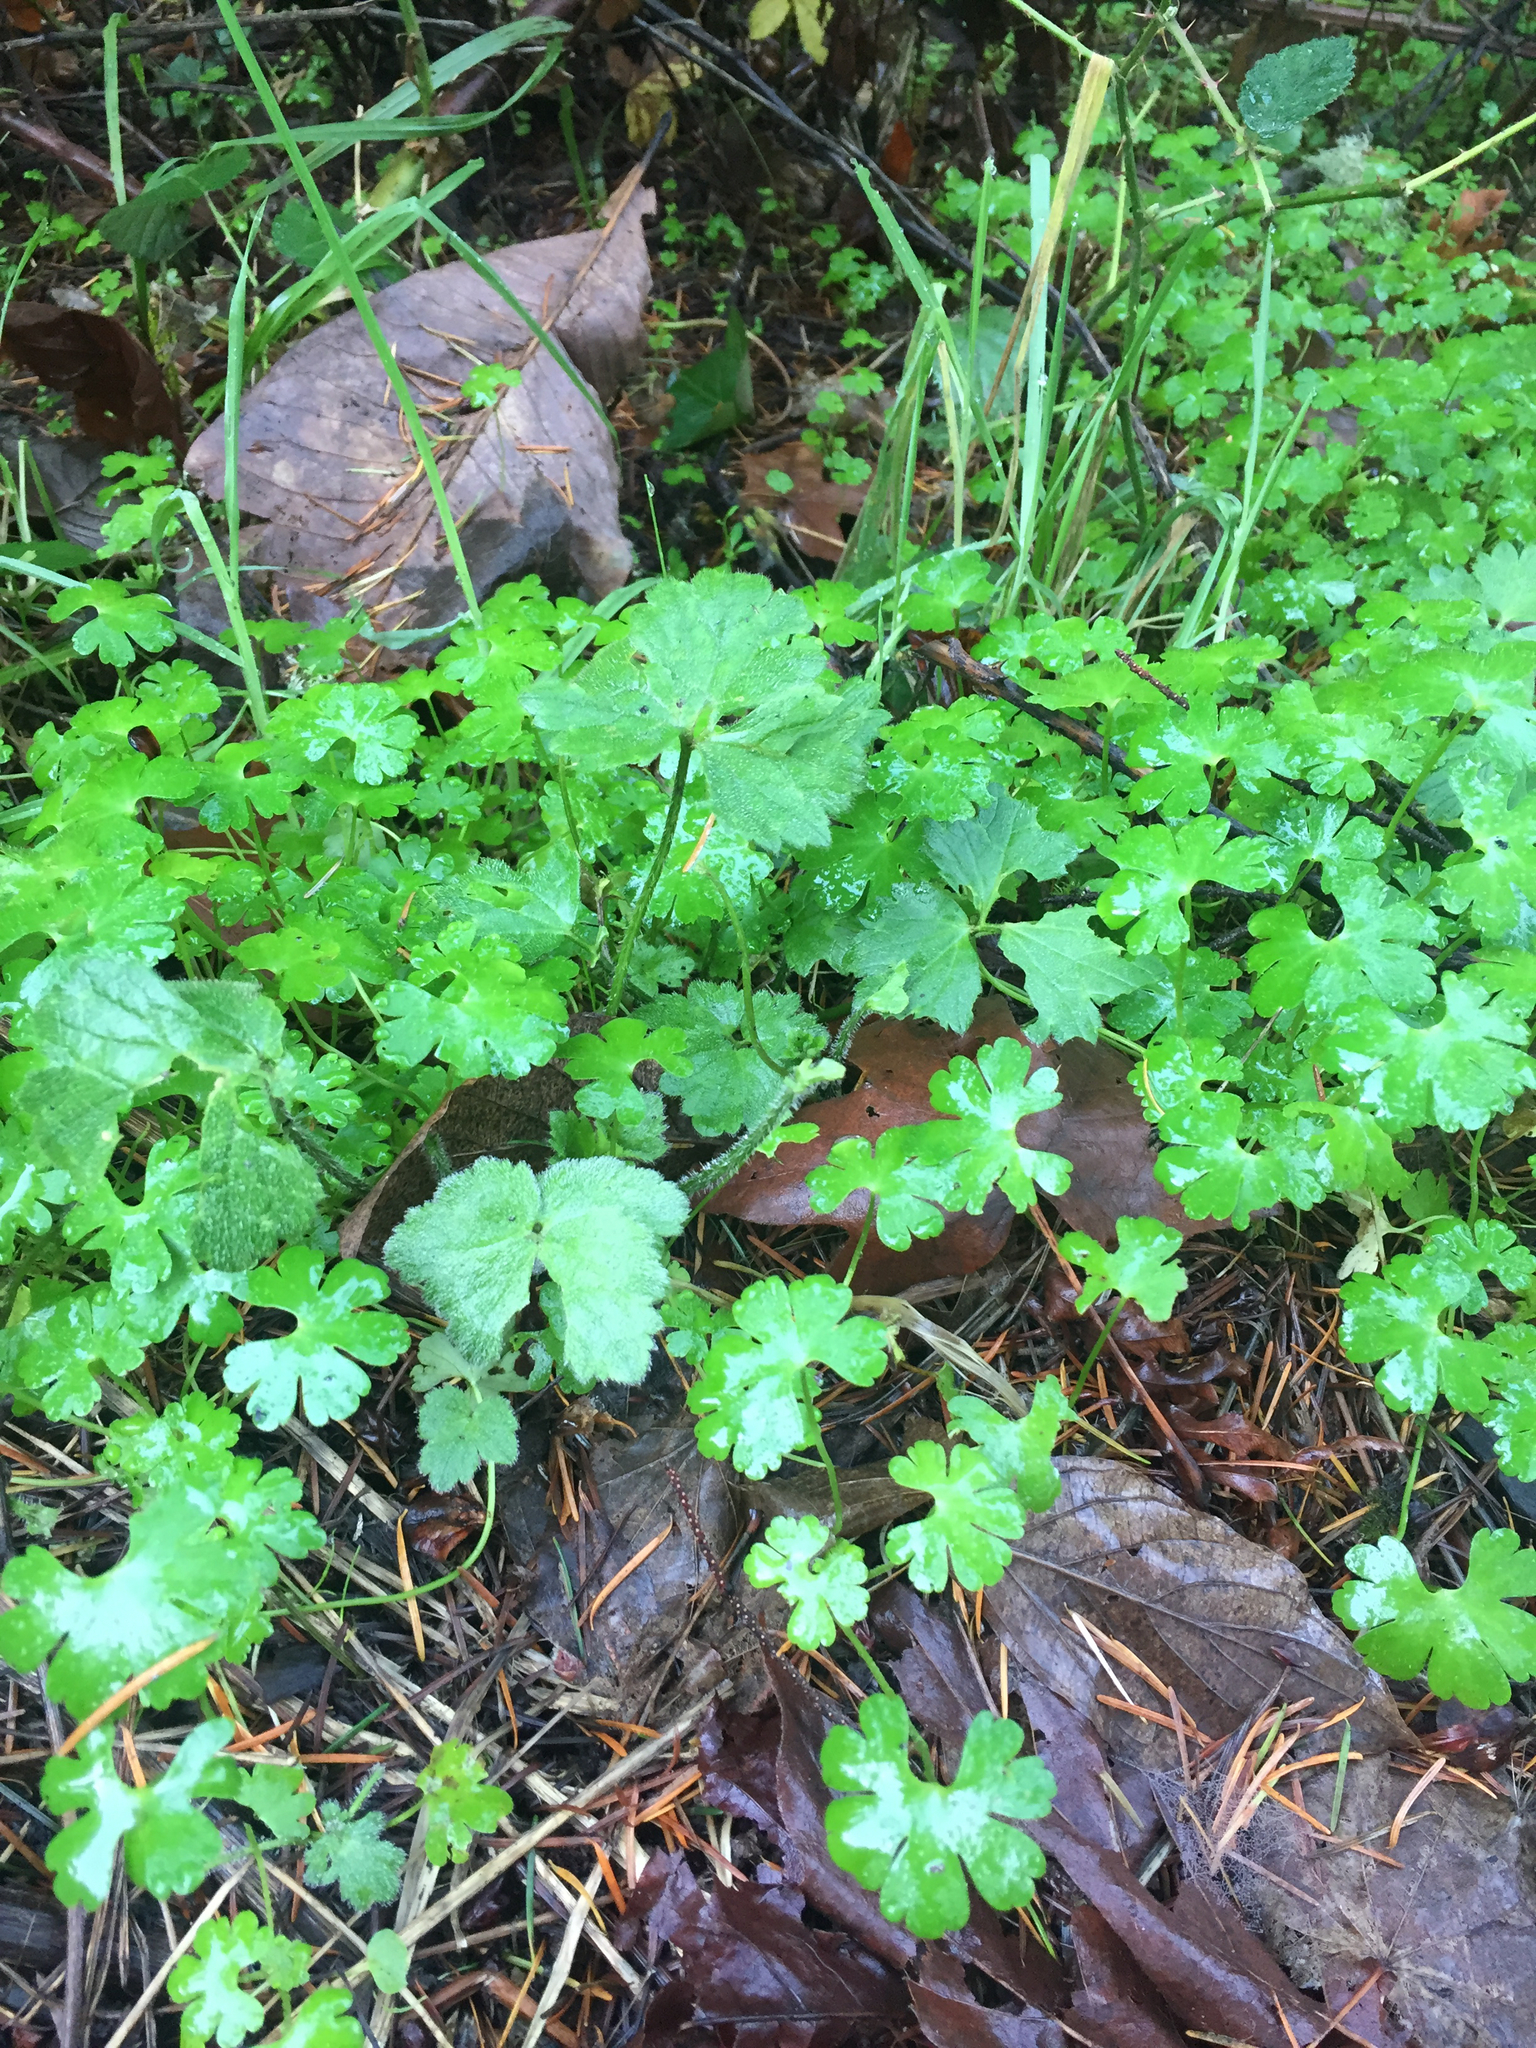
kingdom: Plantae
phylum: Tracheophyta
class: Magnoliopsida
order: Geraniales
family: Geraniaceae
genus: Geranium
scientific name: Geranium lucidum
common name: Shining crane's-bill
